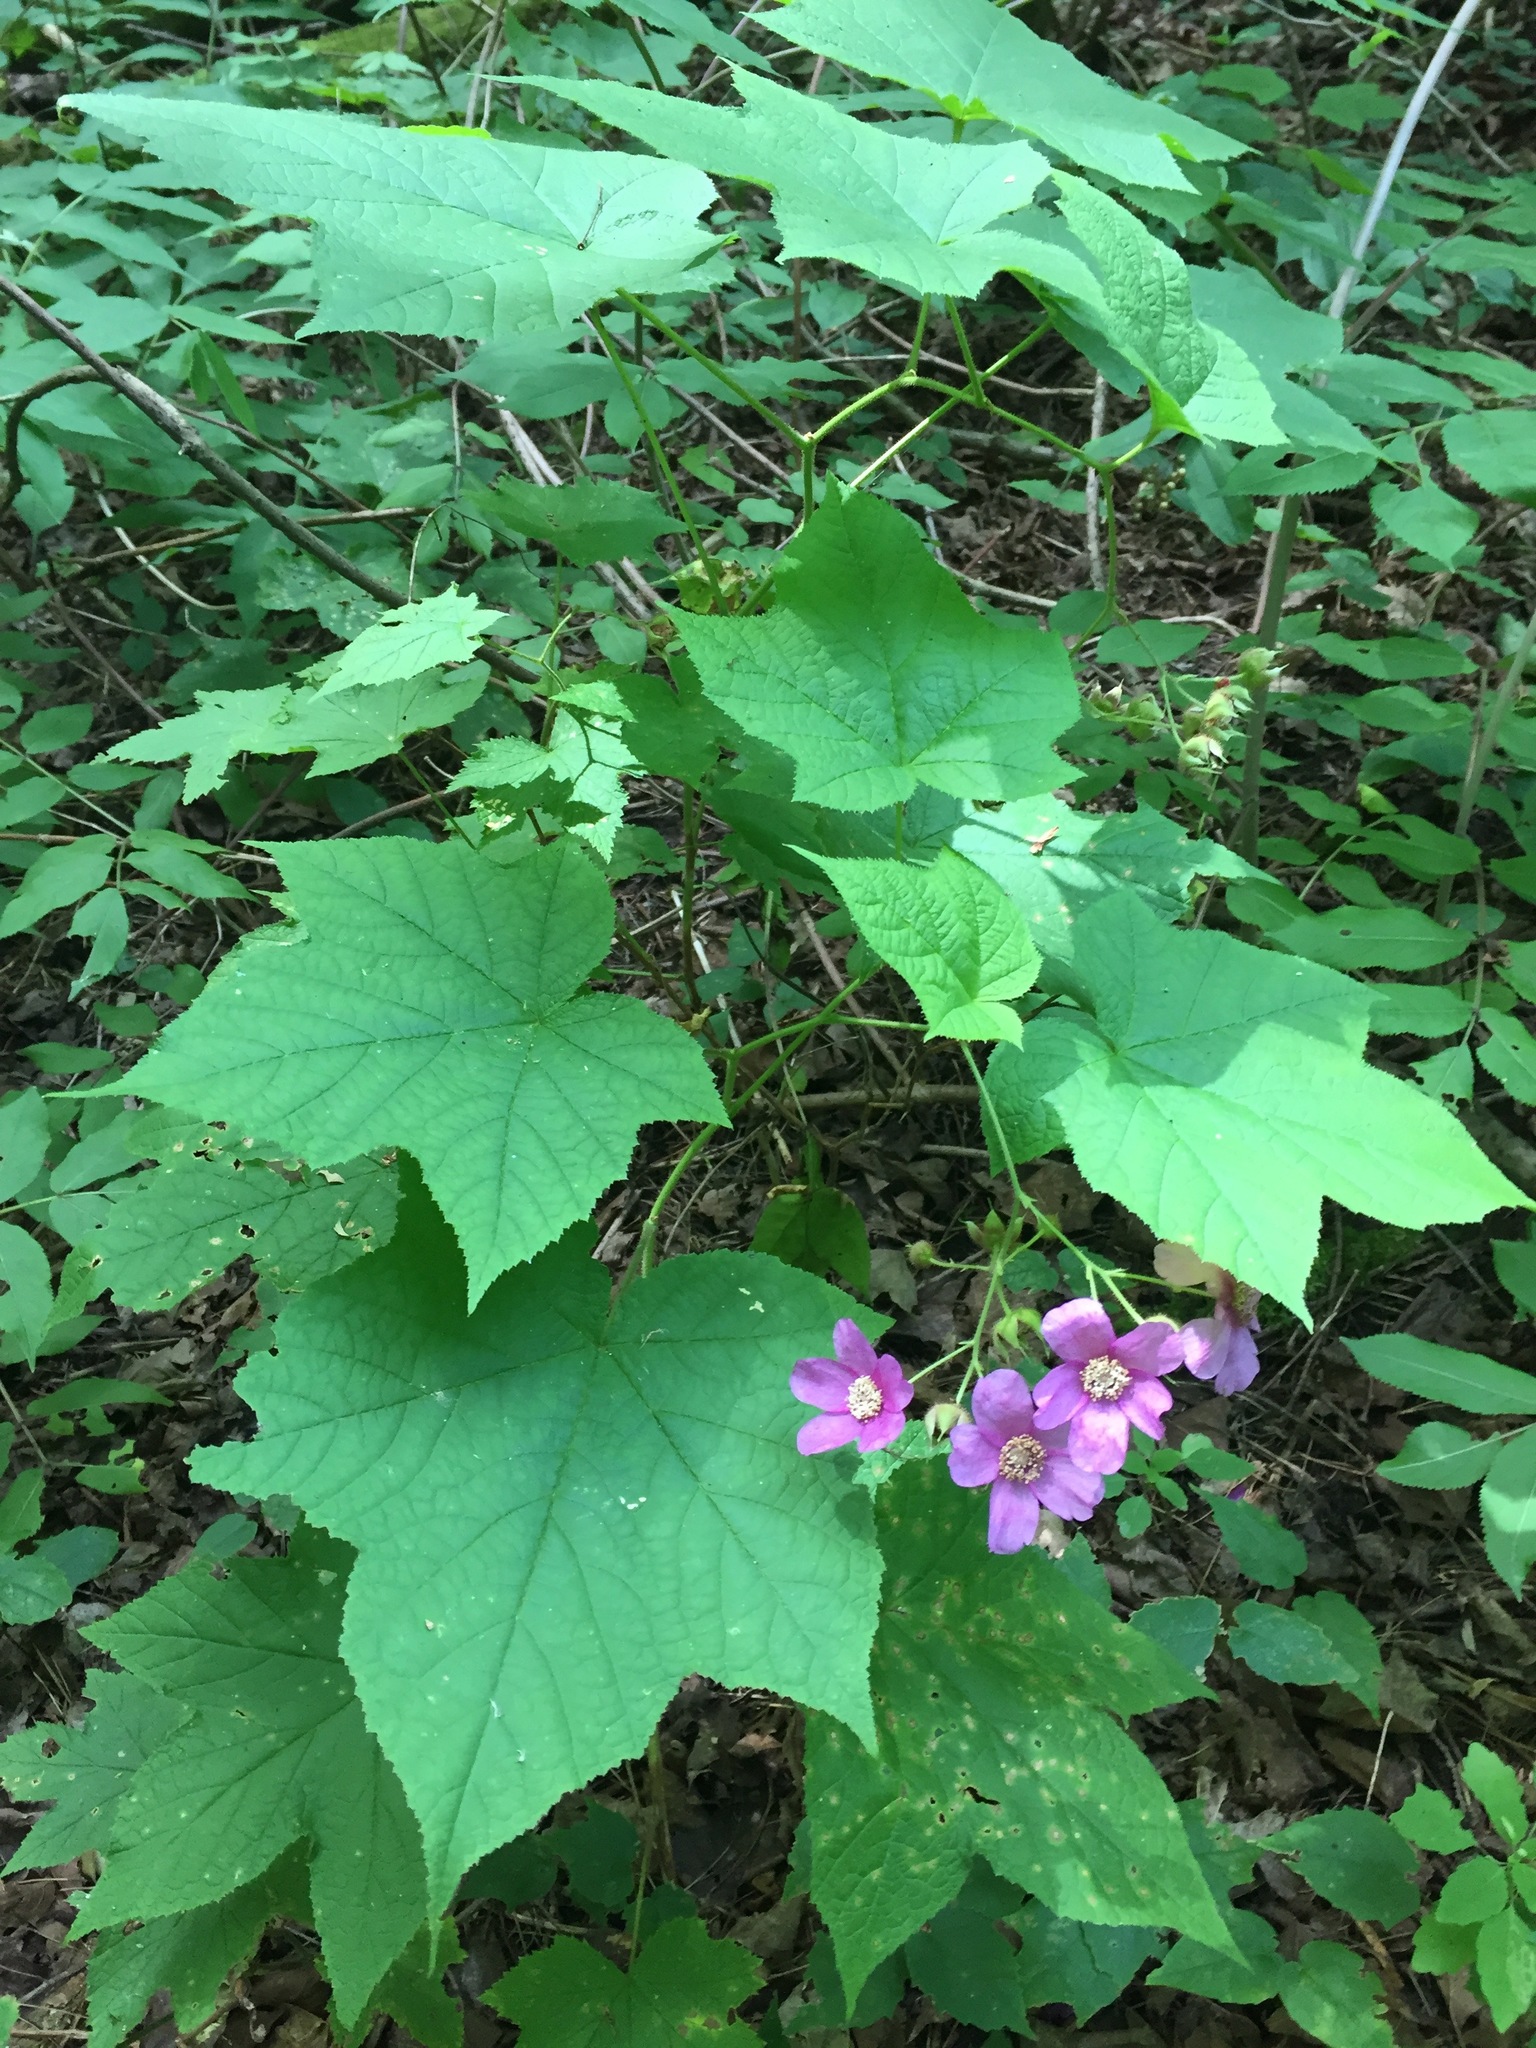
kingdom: Plantae
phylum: Tracheophyta
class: Magnoliopsida
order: Rosales
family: Rosaceae
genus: Rubus
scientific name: Rubus odoratus
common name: Purple-flowered raspberry
